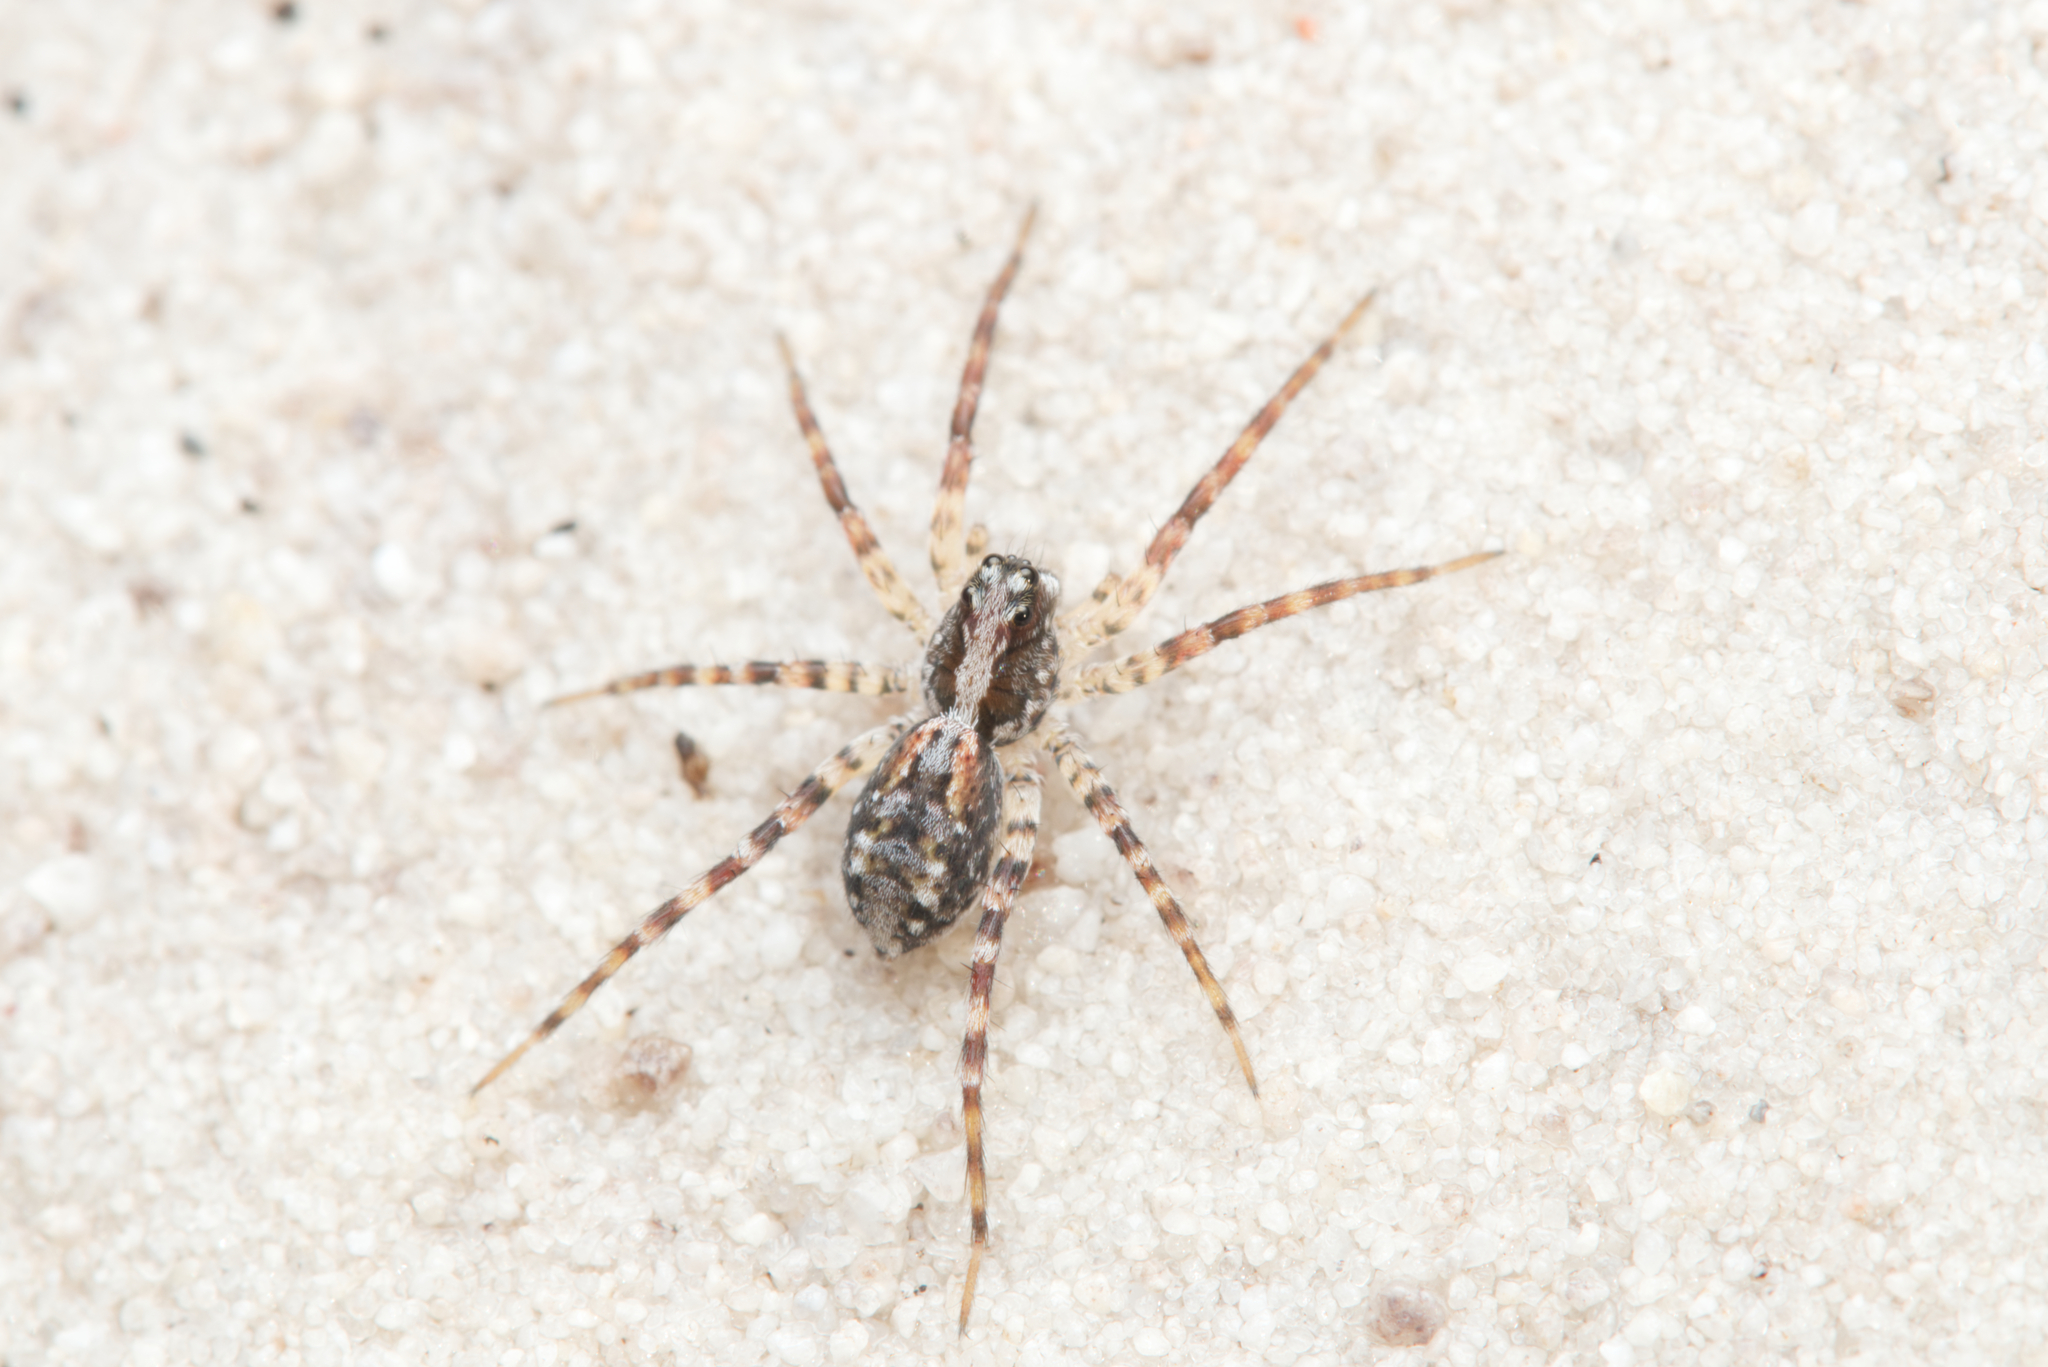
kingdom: Animalia
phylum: Arthropoda
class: Arachnida
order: Araneae
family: Lycosidae
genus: Venator
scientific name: Venator spenceri
